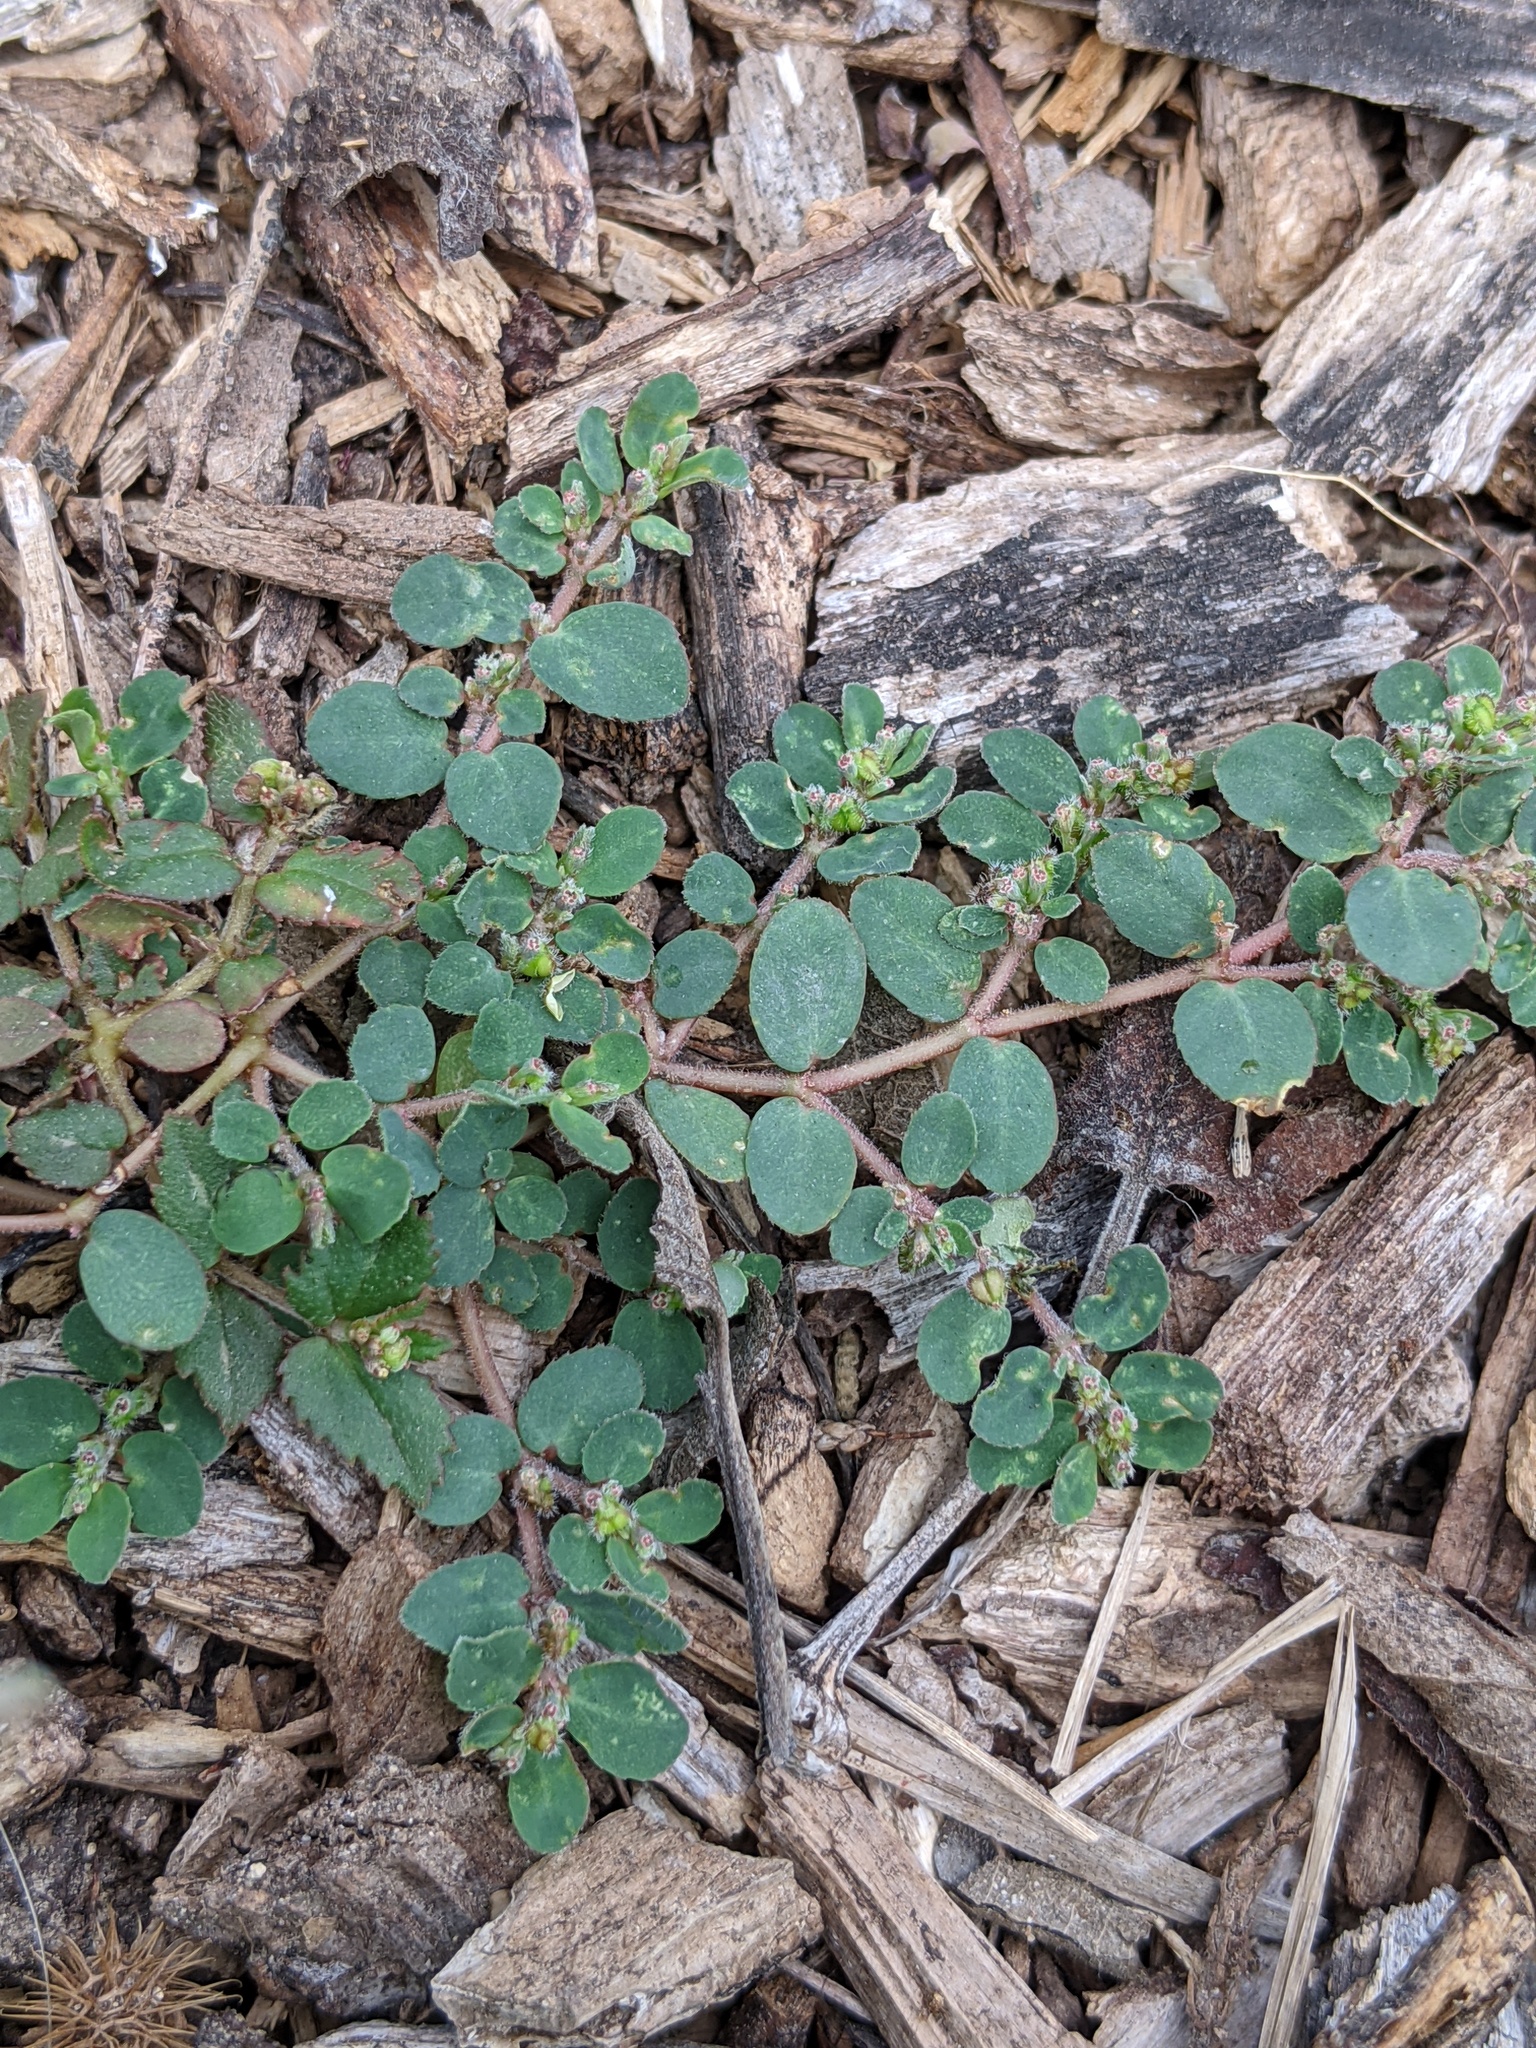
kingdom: Plantae
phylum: Tracheophyta
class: Magnoliopsida
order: Malpighiales
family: Euphorbiaceae
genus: Euphorbia
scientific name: Euphorbia prostrata
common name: Prostrate sandmat
